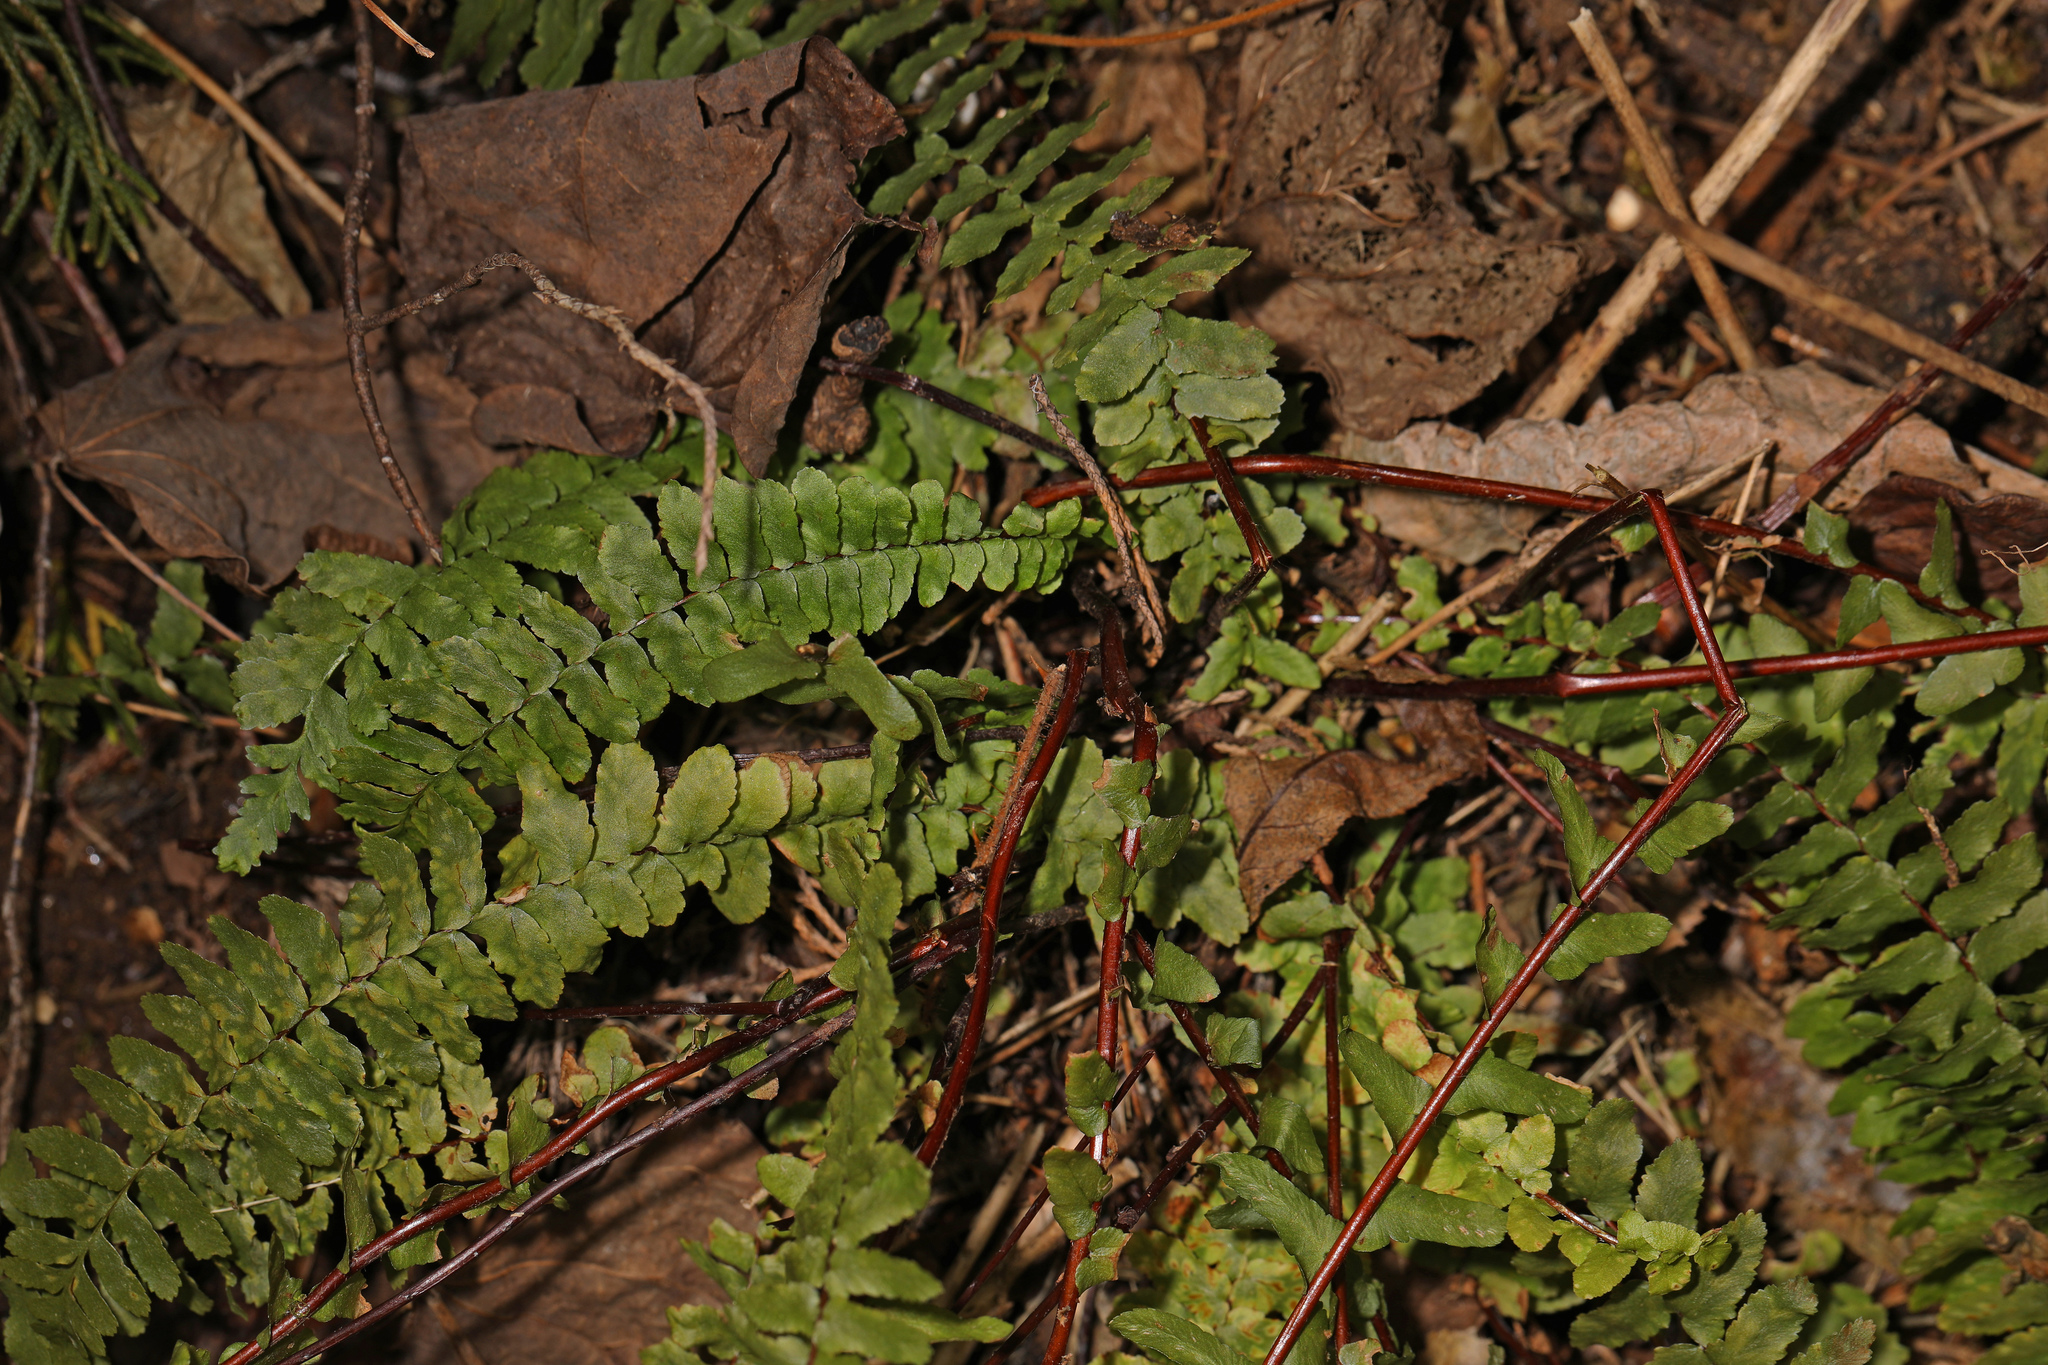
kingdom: Plantae
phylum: Tracheophyta
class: Polypodiopsida
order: Polypodiales
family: Aspleniaceae
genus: Asplenium
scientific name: Asplenium platyneuron
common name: Ebony spleenwort
